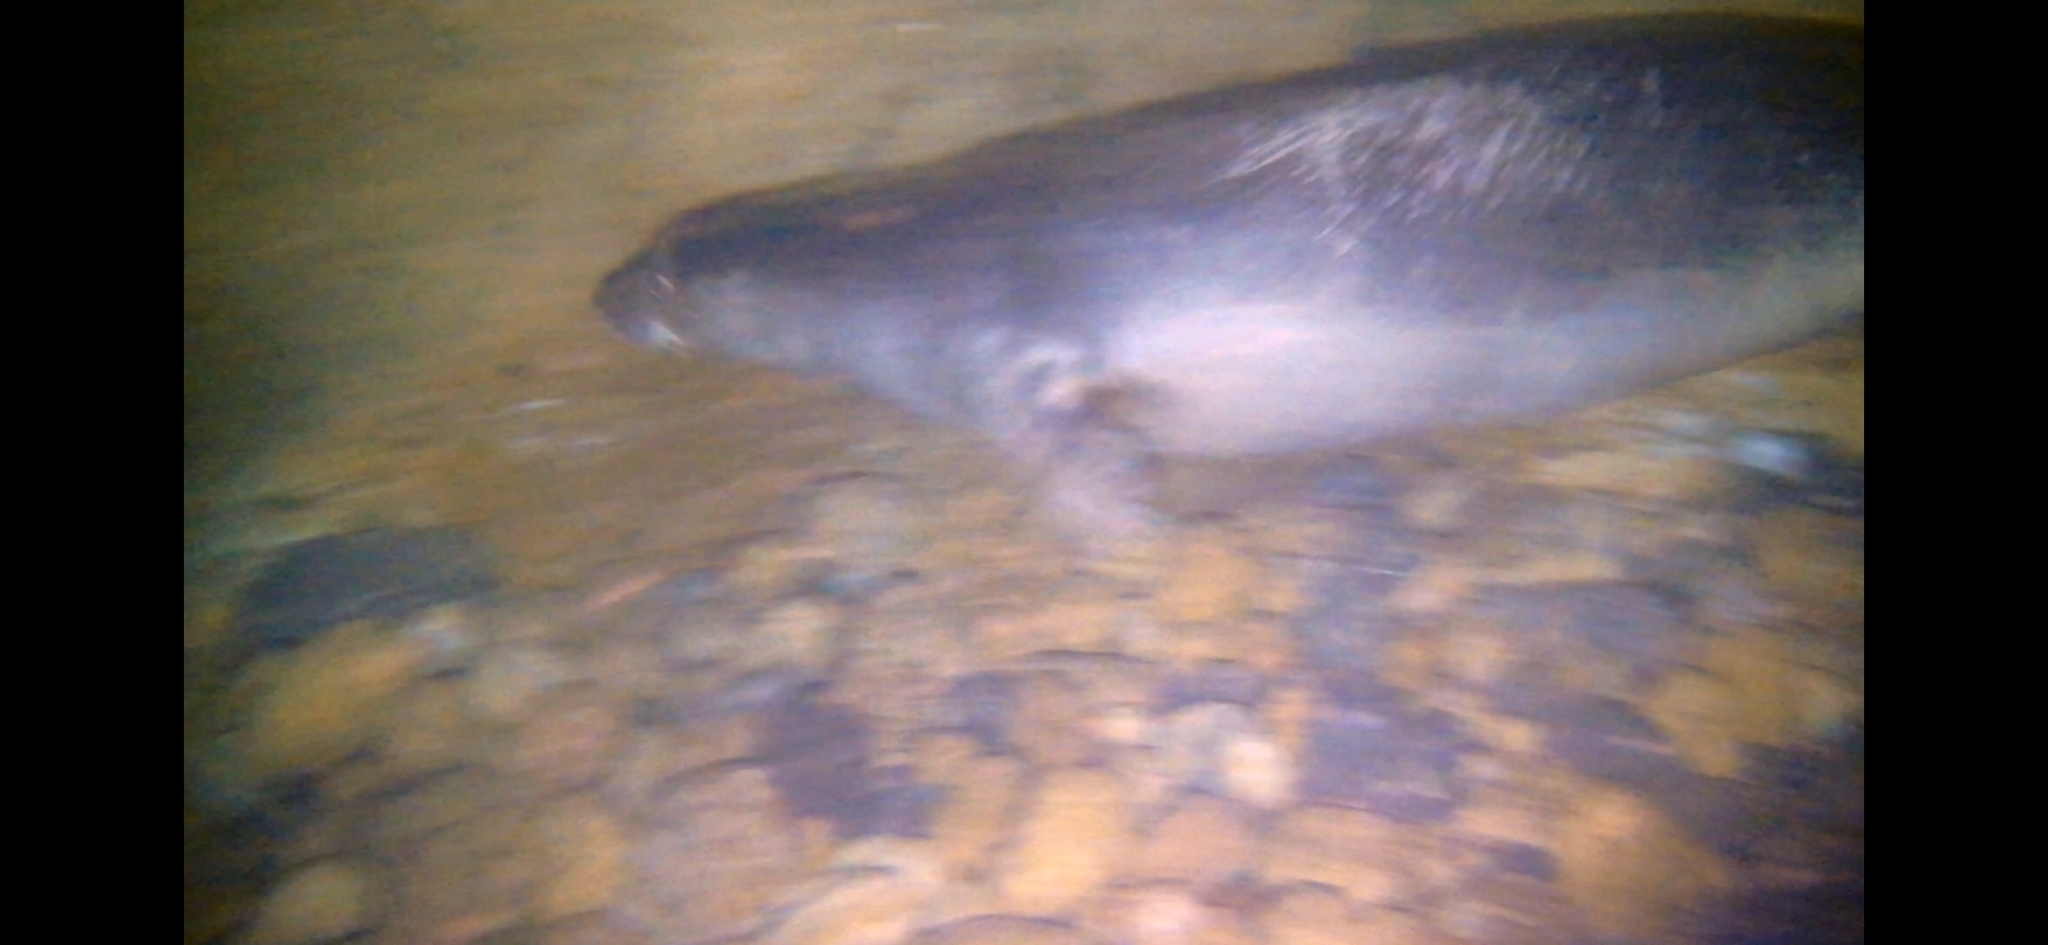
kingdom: Animalia
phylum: Chordata
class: Mammalia
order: Carnivora
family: Phocidae
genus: Monachus
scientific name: Monachus monachus
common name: Mediterranean monk seal
